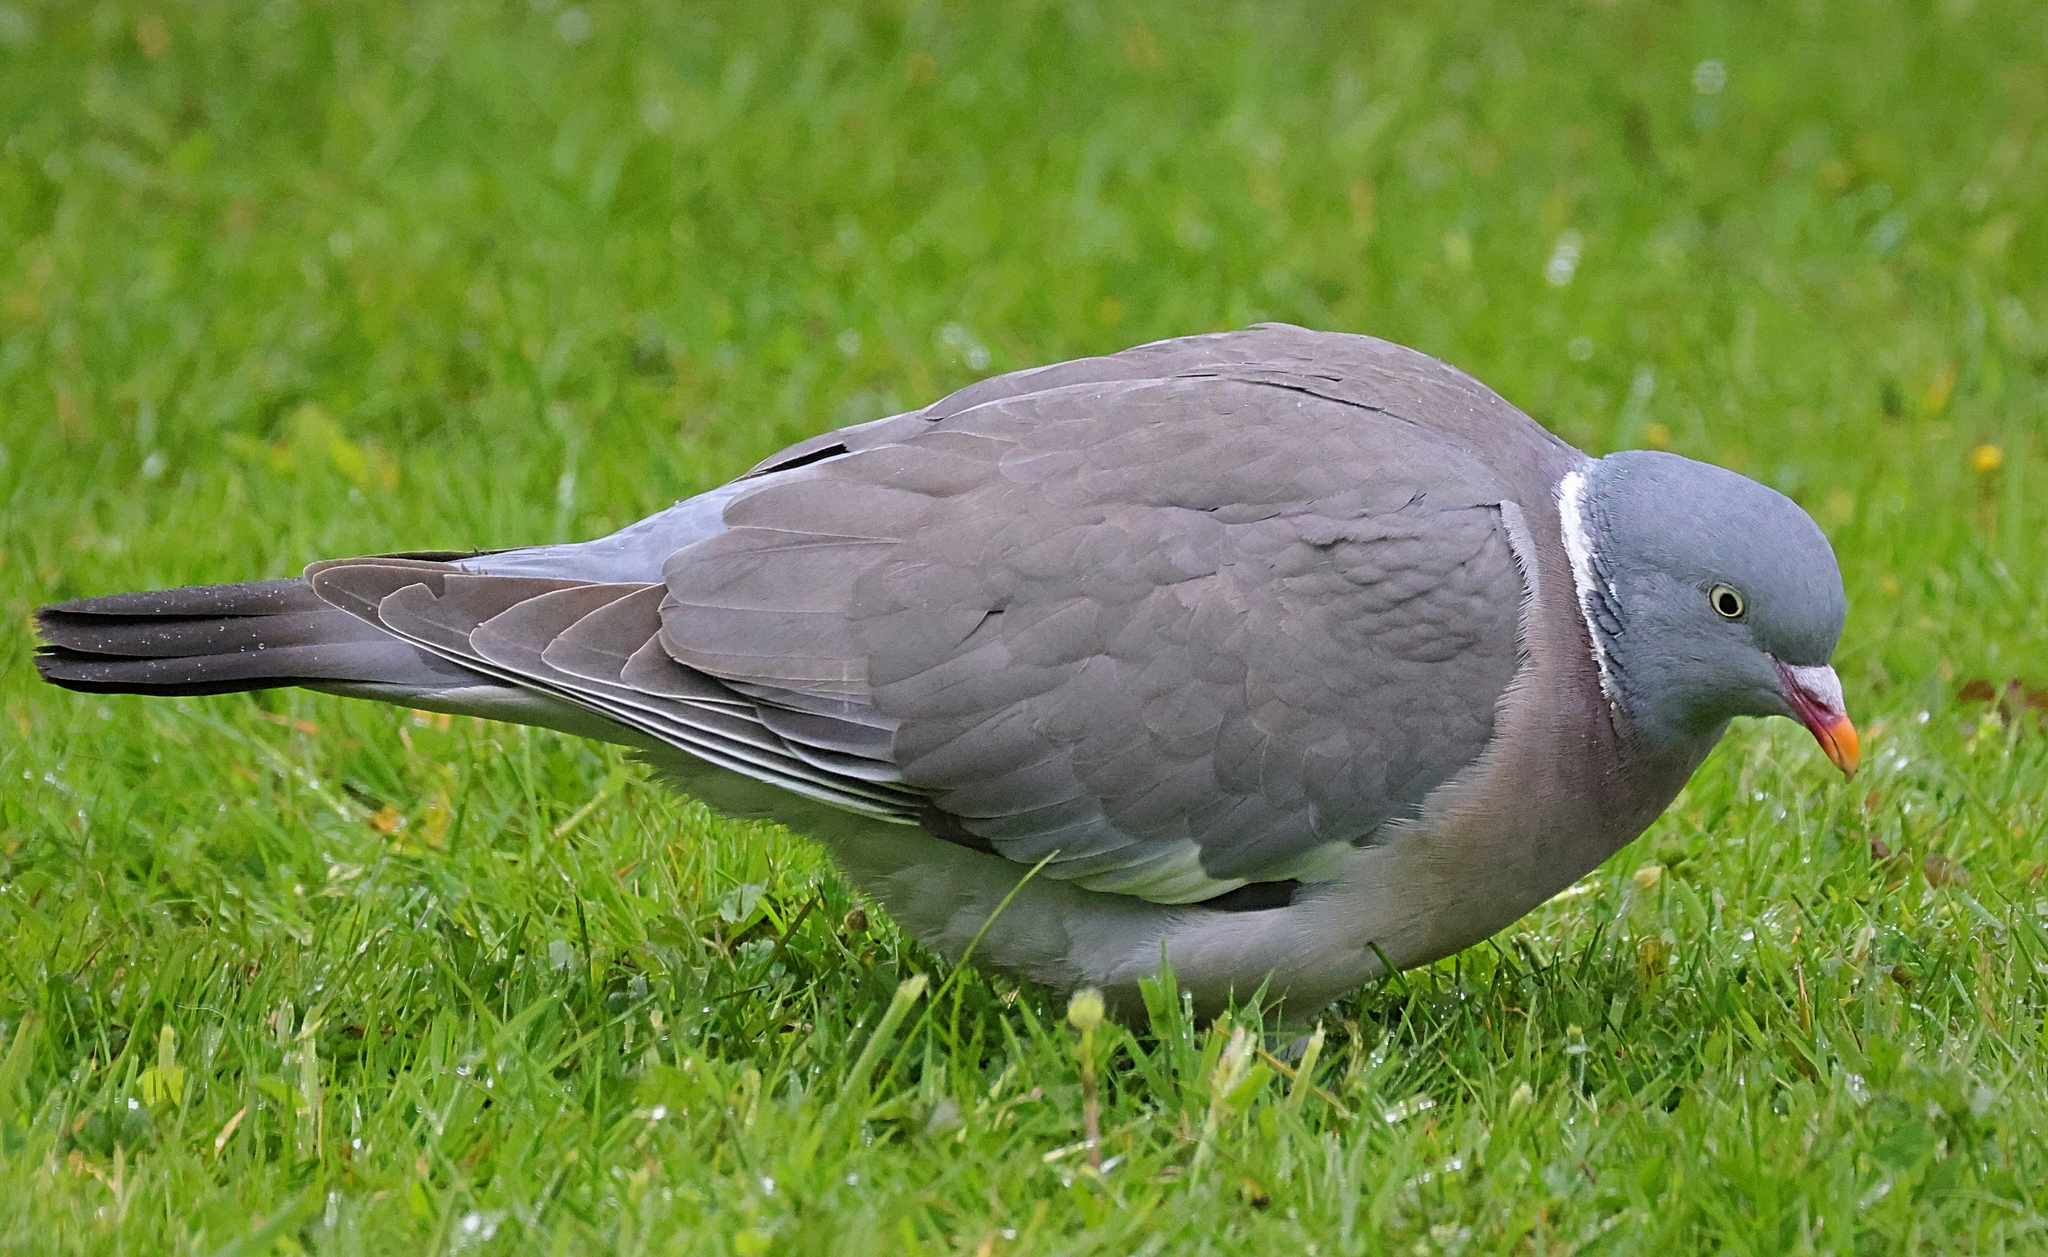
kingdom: Animalia
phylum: Chordata
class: Aves
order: Columbiformes
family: Columbidae
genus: Columba
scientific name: Columba palumbus
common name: Common wood pigeon
